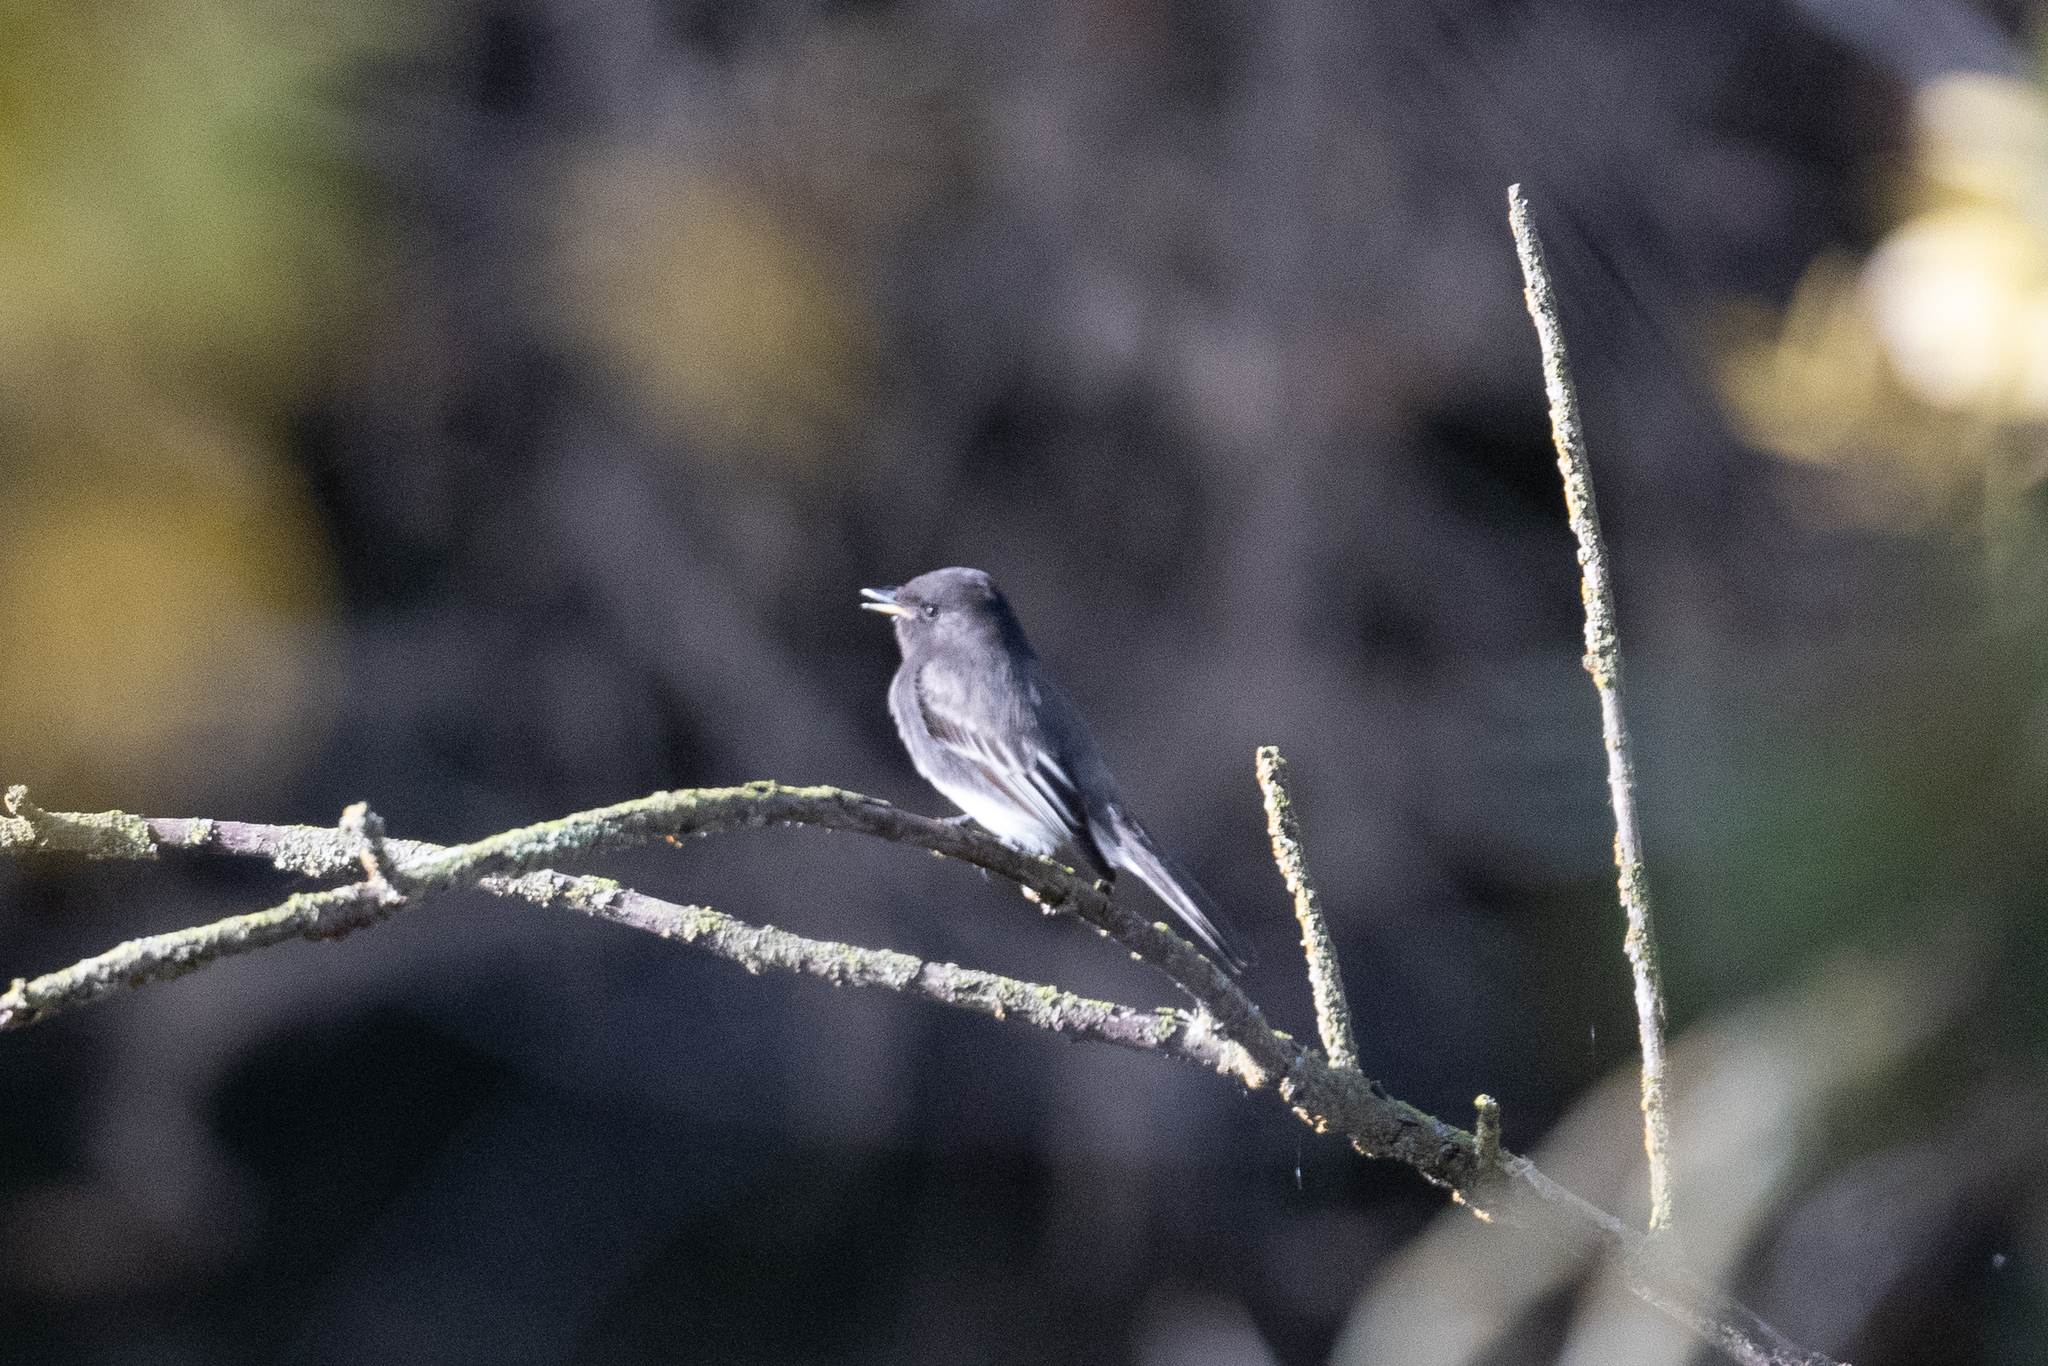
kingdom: Animalia
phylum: Chordata
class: Aves
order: Passeriformes
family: Tyrannidae
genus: Sayornis
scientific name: Sayornis nigricans
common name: Black phoebe
